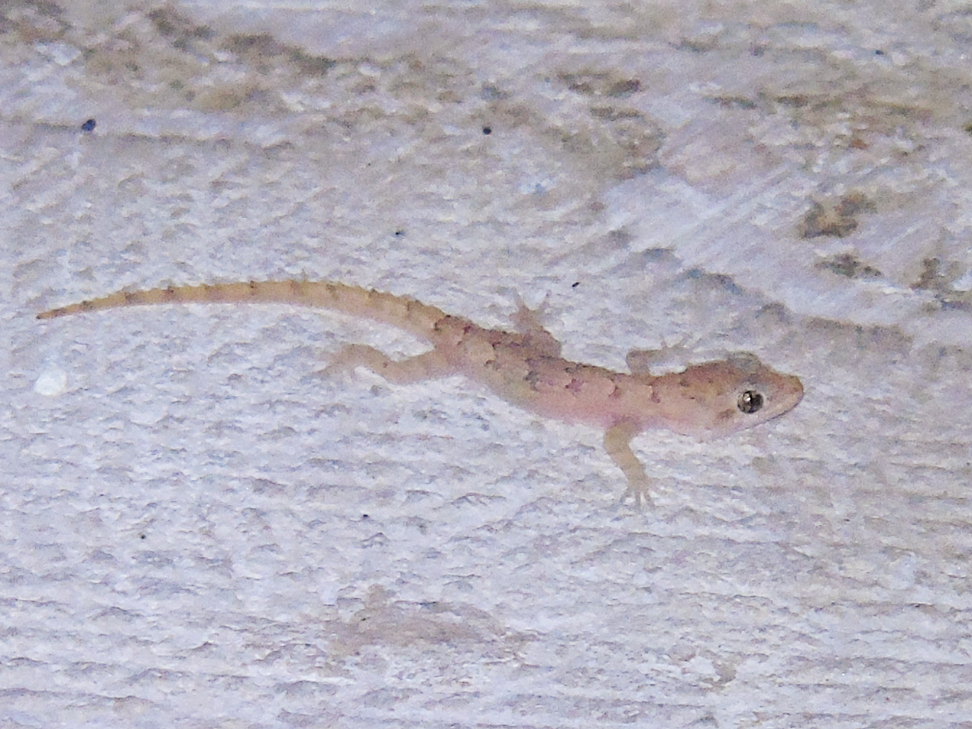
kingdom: Animalia
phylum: Chordata
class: Squamata
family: Gekkonidae
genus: Mediodactylus
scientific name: Mediodactylus orientalis
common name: Mediterranean thin-toed gecko
